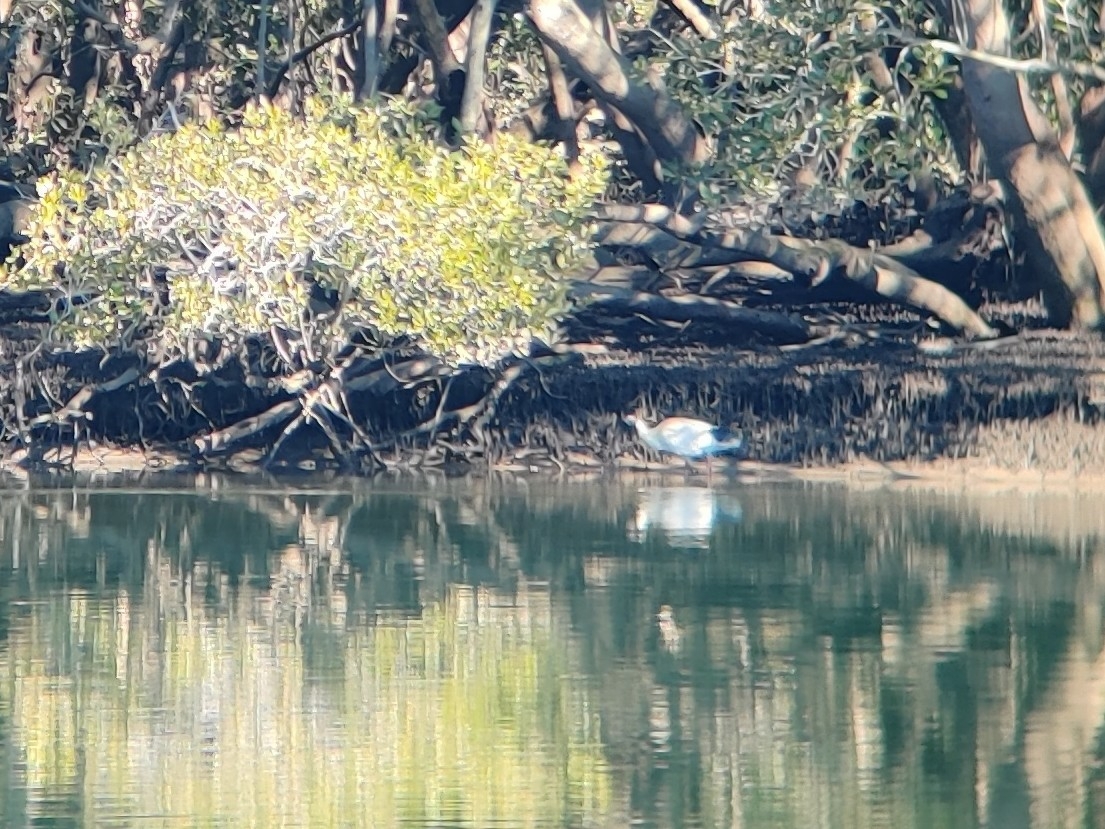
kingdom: Animalia
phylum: Chordata
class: Aves
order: Pelecaniformes
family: Threskiornithidae
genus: Threskiornis
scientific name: Threskiornis molucca
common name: Australian white ibis
